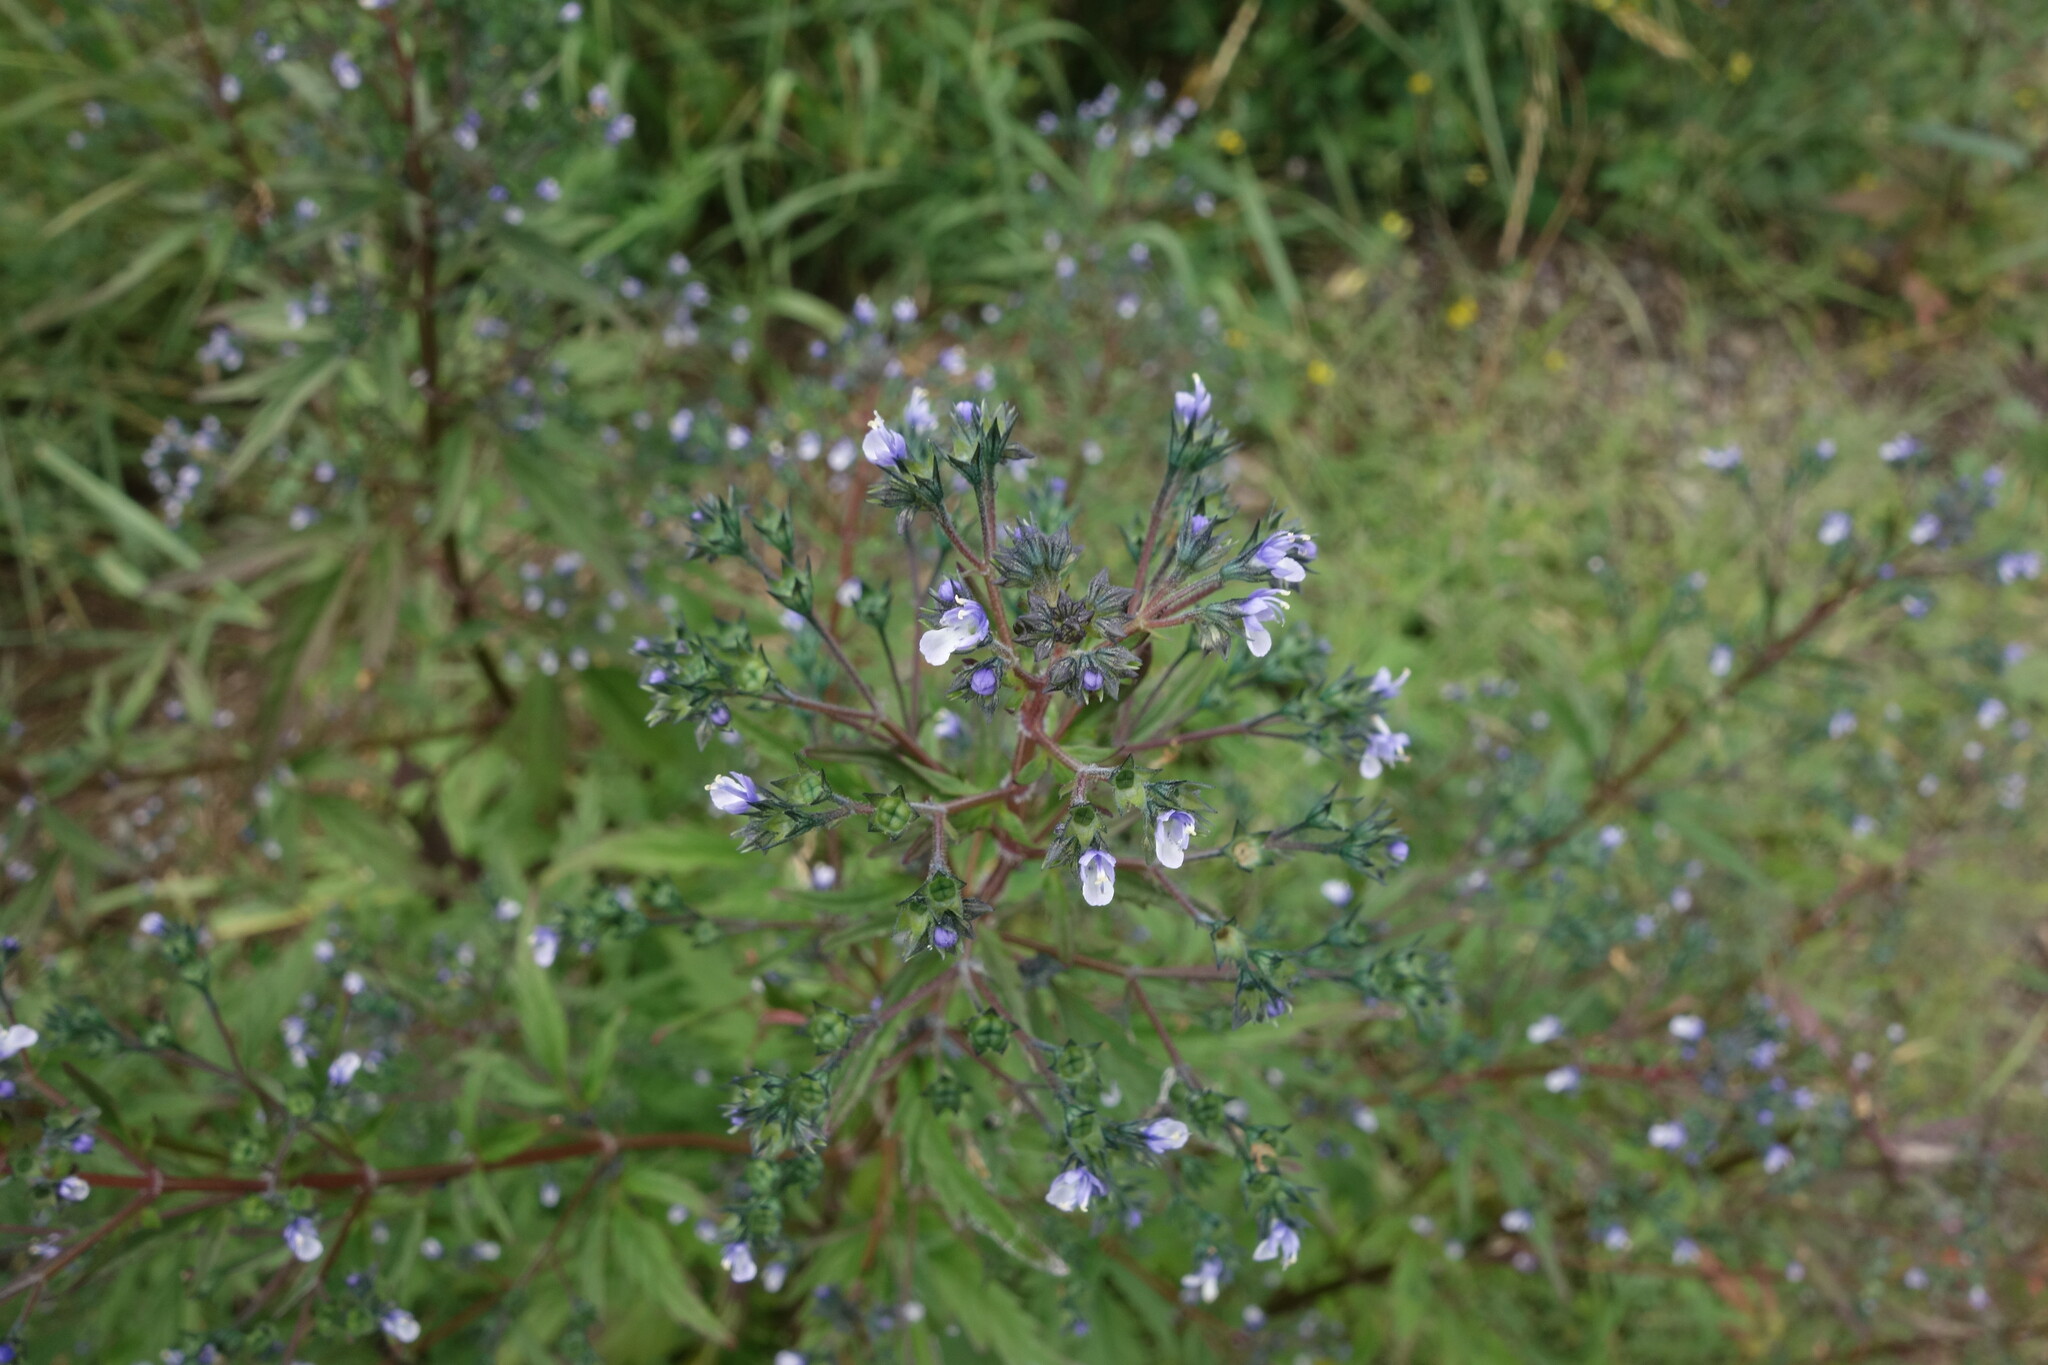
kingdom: Plantae
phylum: Tracheophyta
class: Magnoliopsida
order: Lamiales
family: Lamiaceae
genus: Amethystea
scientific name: Amethystea caerulea
